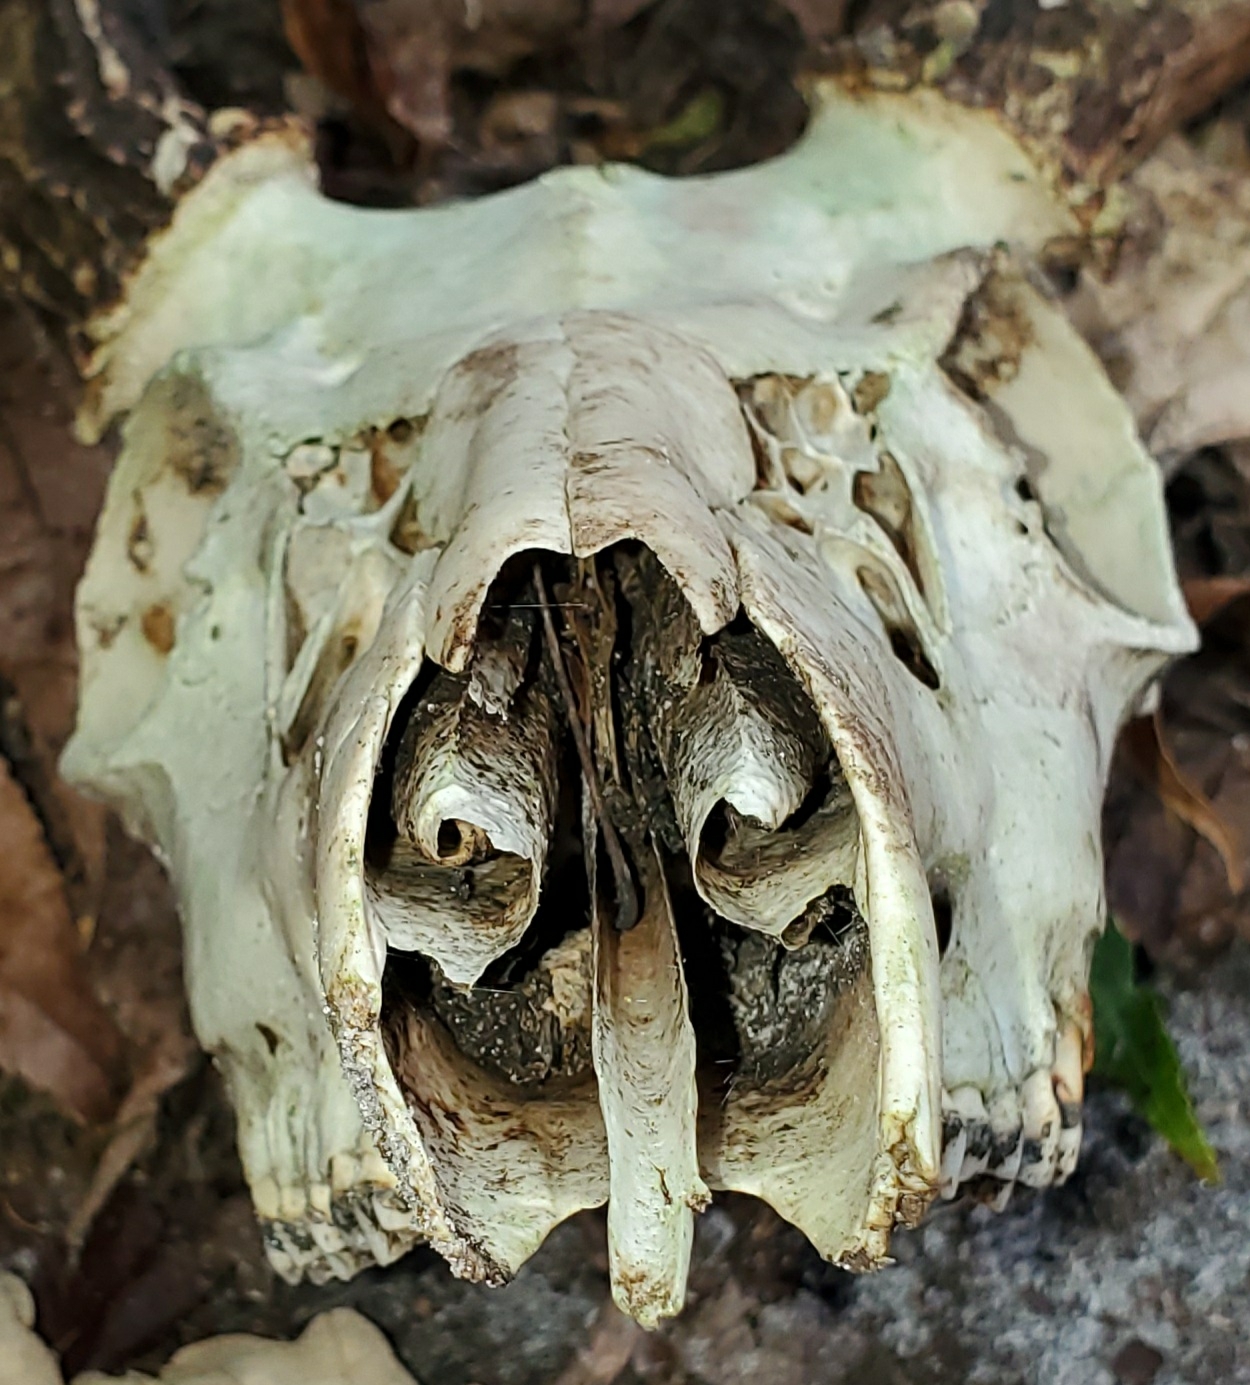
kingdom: Animalia
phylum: Chordata
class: Mammalia
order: Artiodactyla
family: Cervidae
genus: Odocoileus
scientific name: Odocoileus virginianus
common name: White-tailed deer
